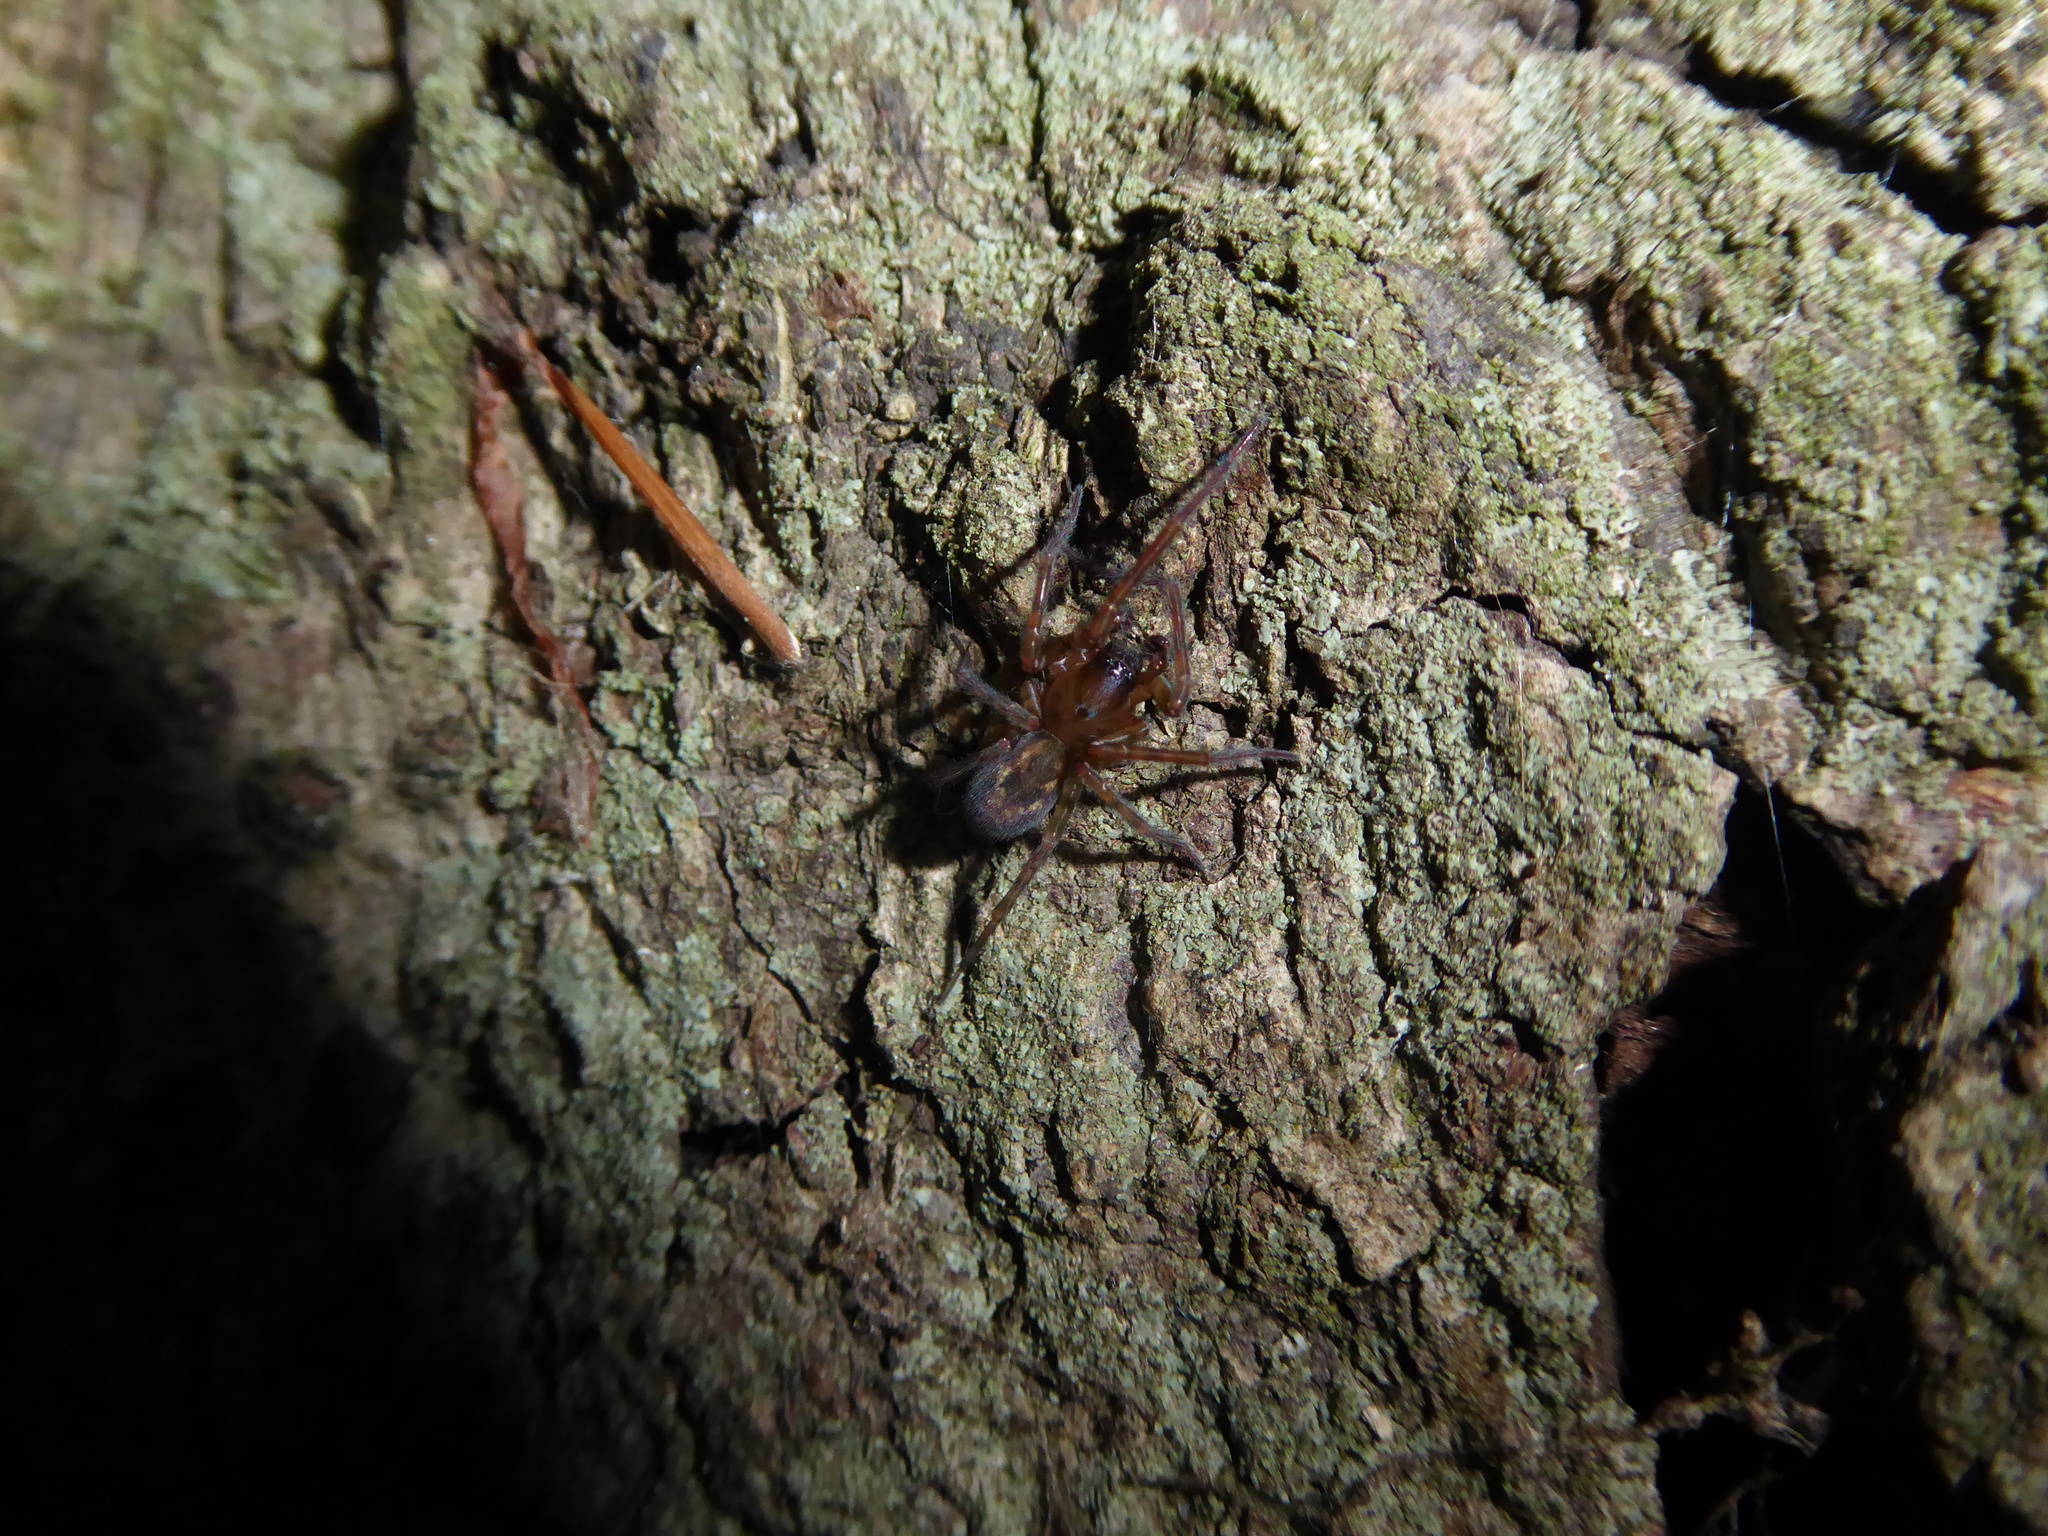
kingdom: Animalia
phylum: Arthropoda
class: Arachnida
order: Araneae
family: Amaurobiidae
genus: Amaurobius
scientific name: Amaurobius
